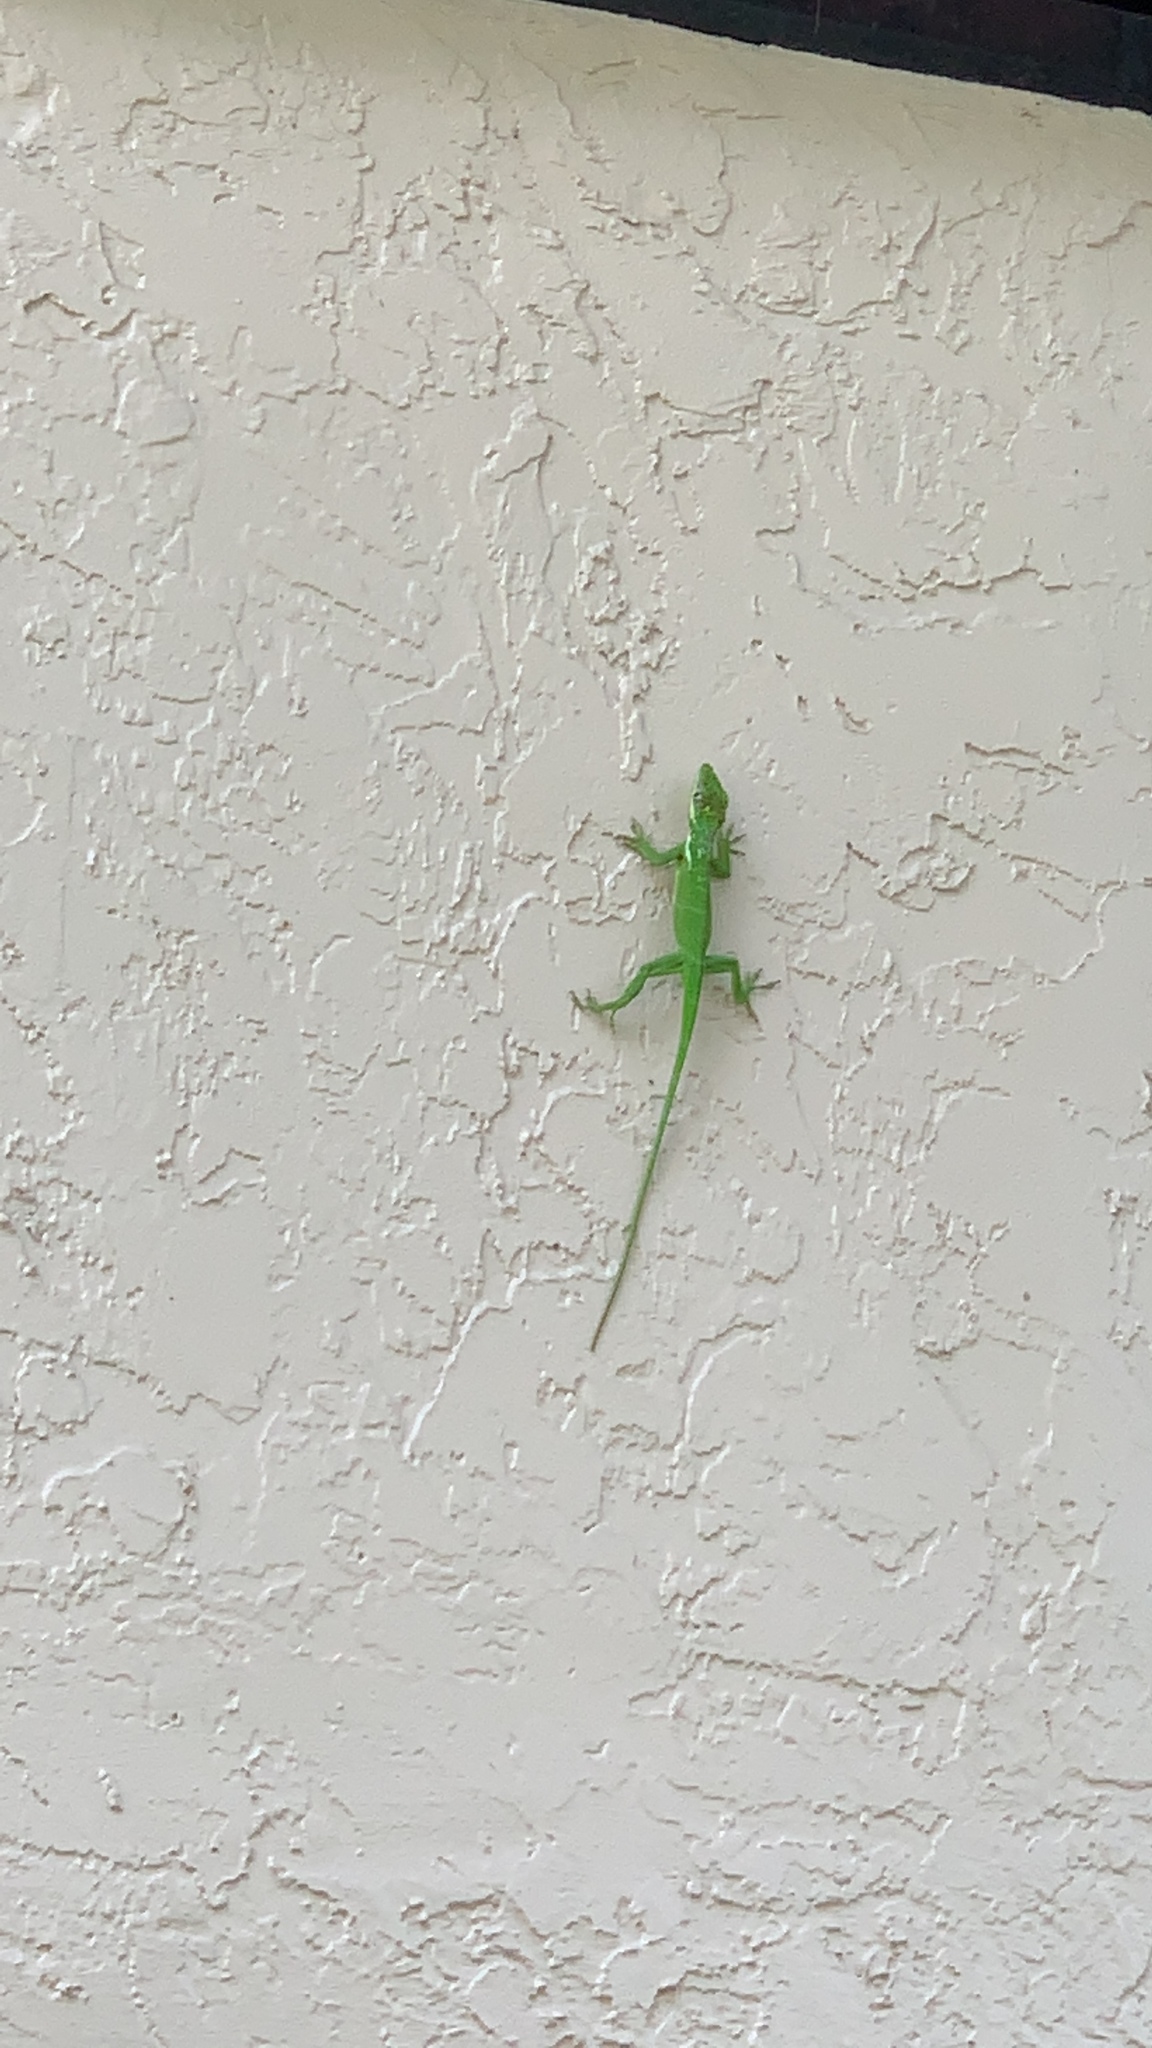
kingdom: Animalia
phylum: Chordata
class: Squamata
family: Dactyloidae
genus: Anolis
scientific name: Anolis equestris
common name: Knight anole
